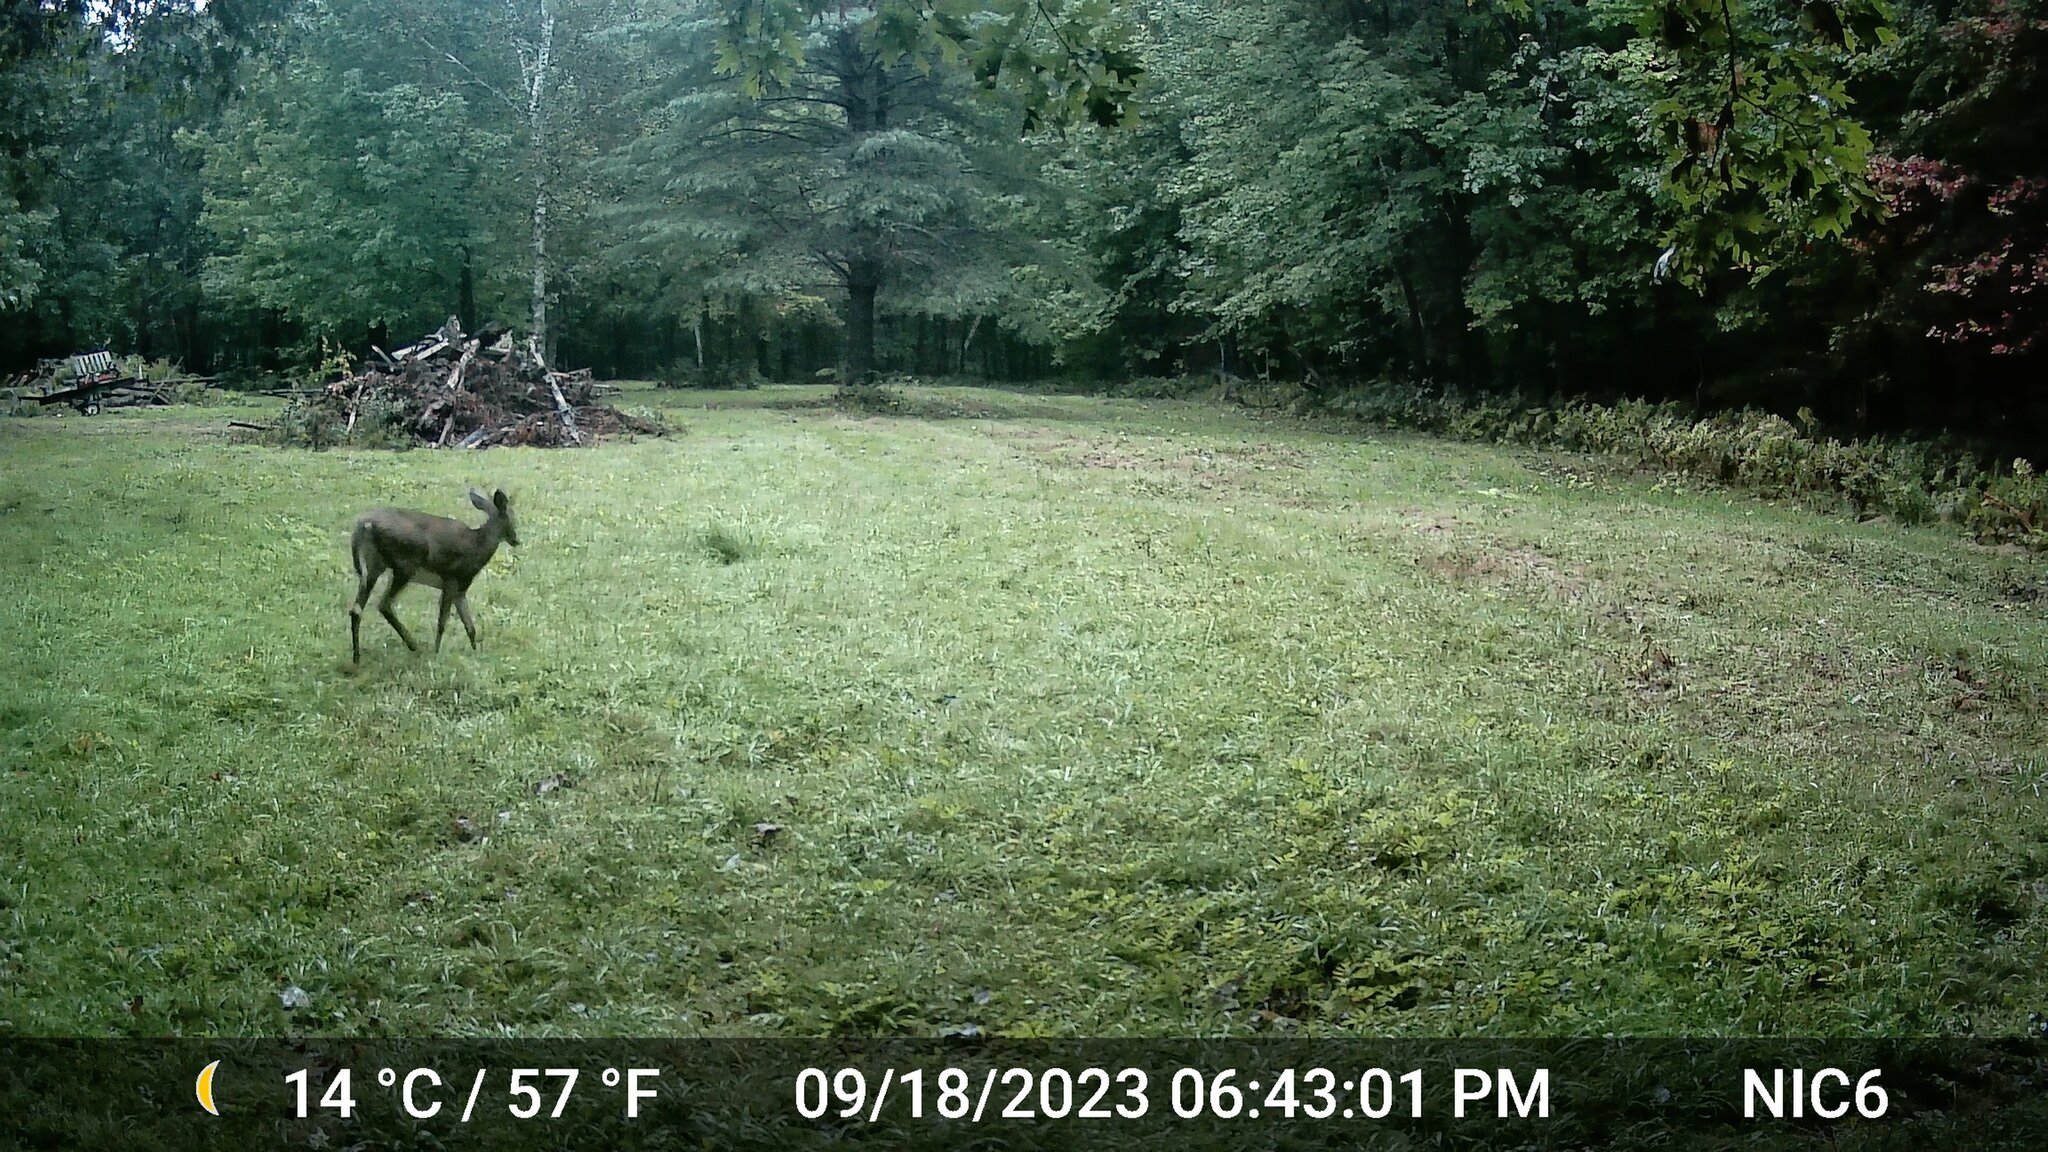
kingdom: Animalia
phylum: Chordata
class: Mammalia
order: Artiodactyla
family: Cervidae
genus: Odocoileus
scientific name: Odocoileus virginianus
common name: White-tailed deer
